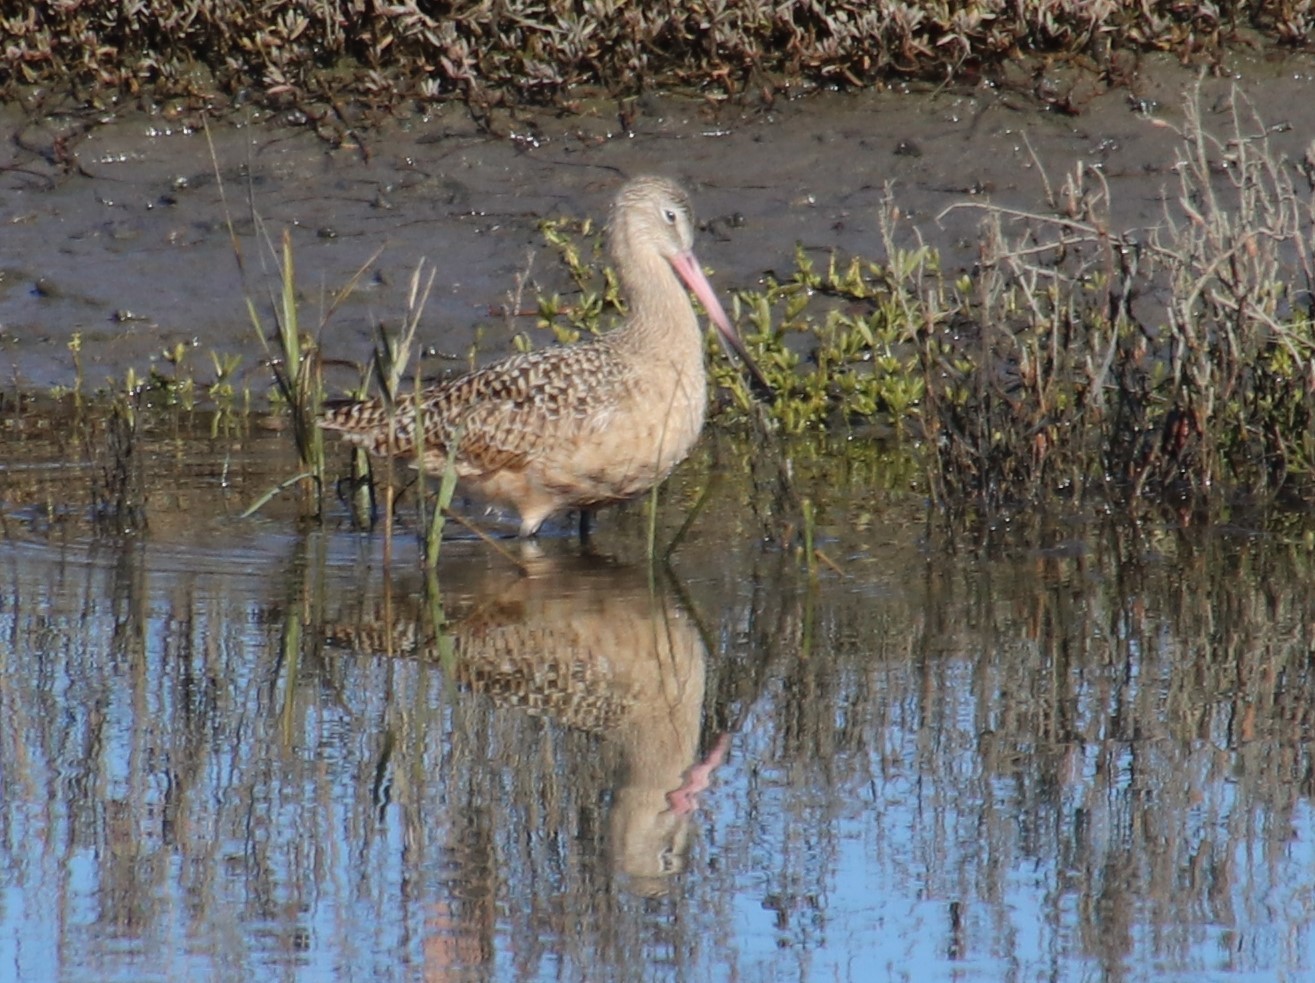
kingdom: Animalia
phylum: Chordata
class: Aves
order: Charadriiformes
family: Scolopacidae
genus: Limosa
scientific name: Limosa fedoa
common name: Marbled godwit
